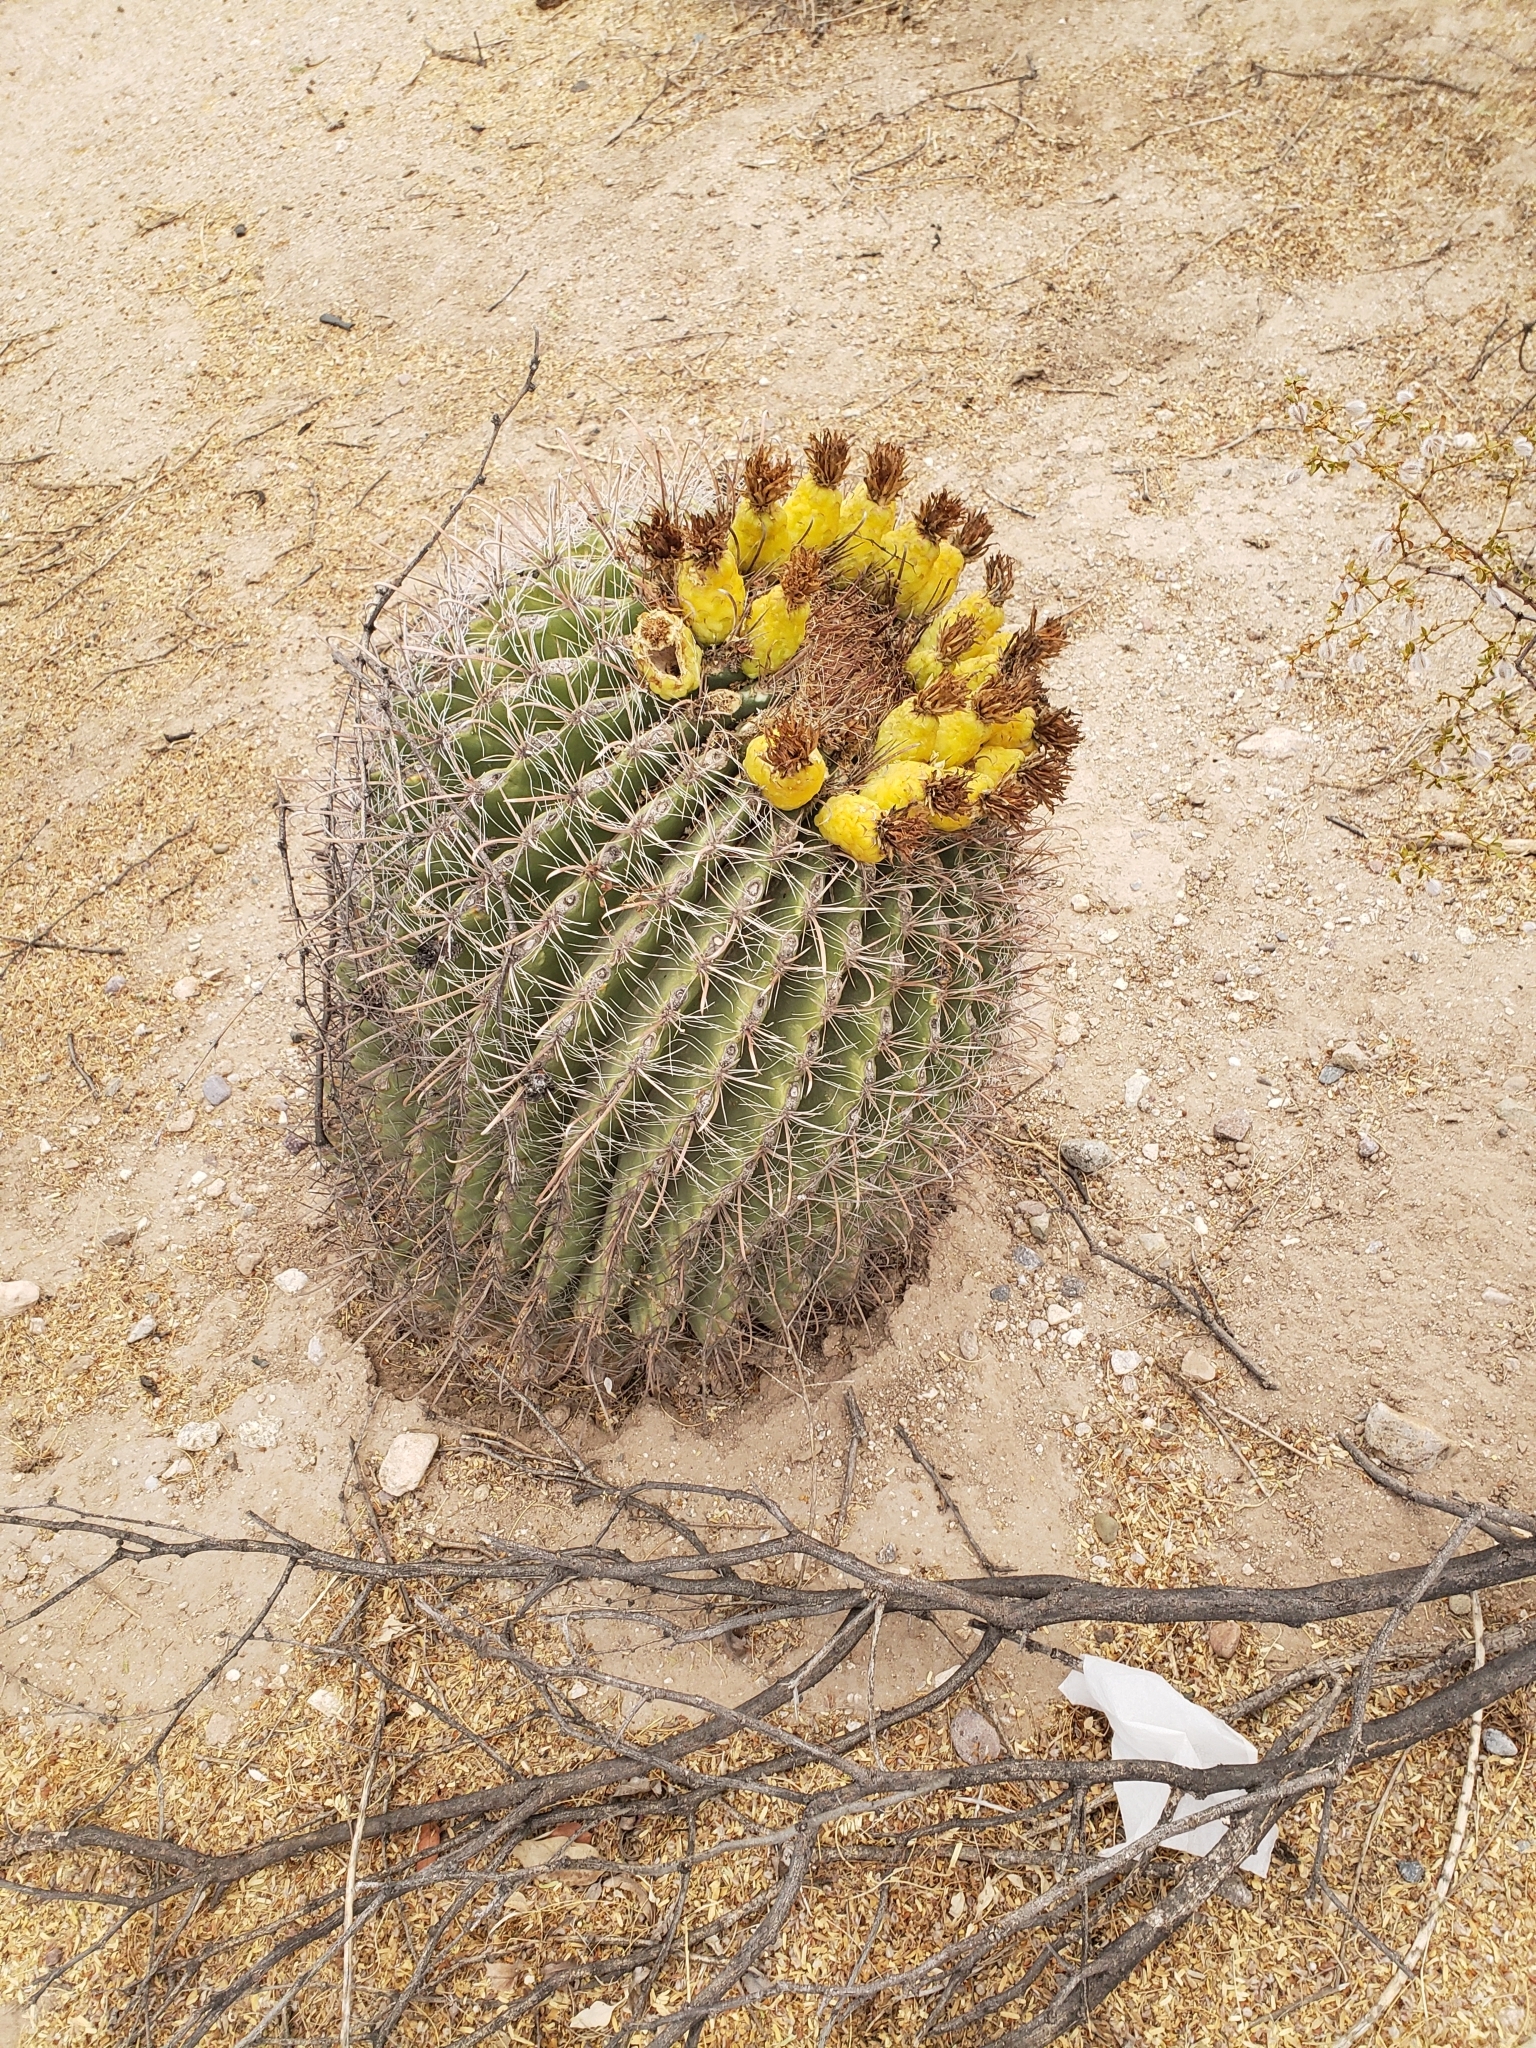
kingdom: Plantae
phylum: Tracheophyta
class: Magnoliopsida
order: Caryophyllales
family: Cactaceae
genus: Ferocactus
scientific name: Ferocactus wislizeni
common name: Candy barrel cactus
